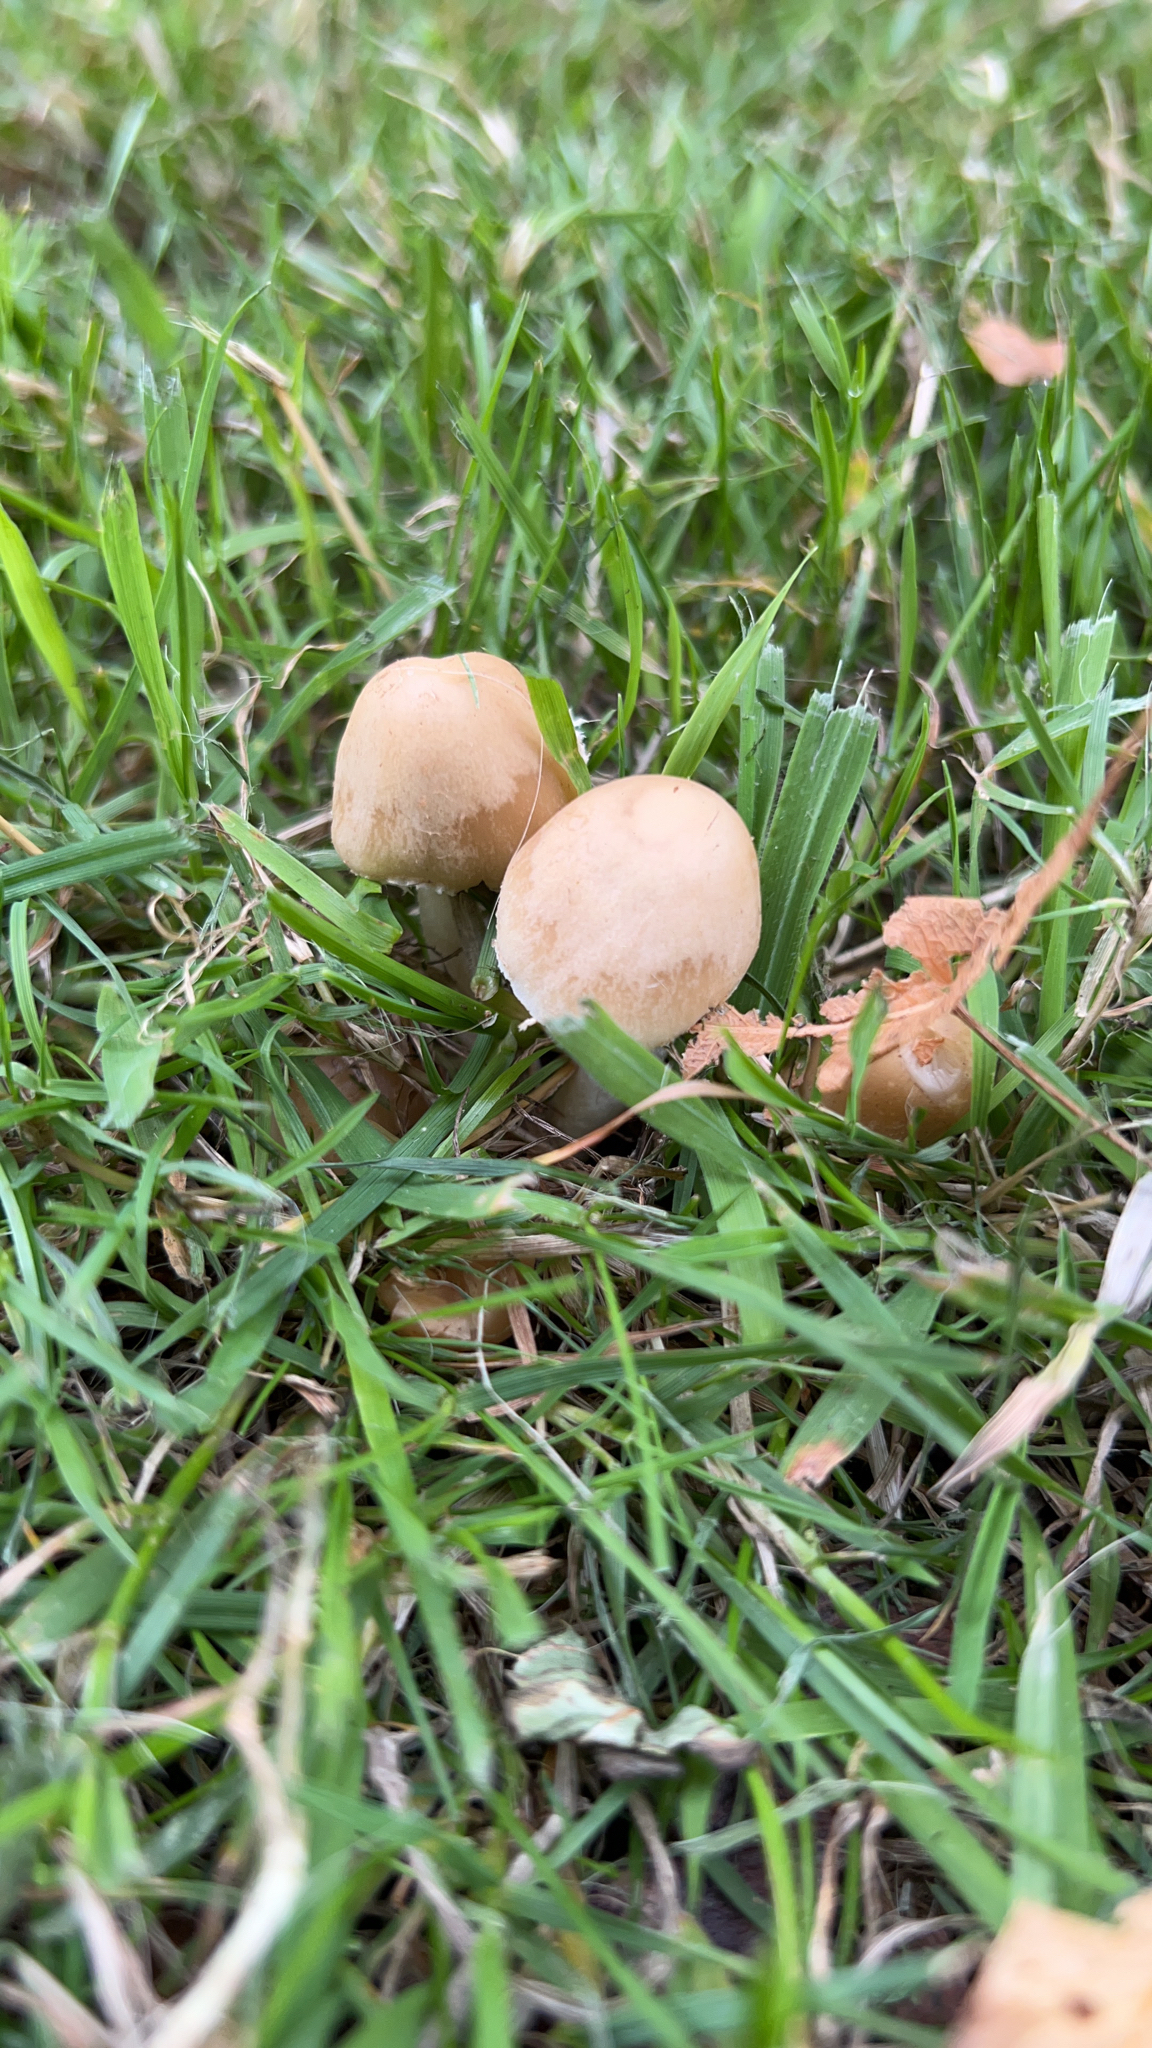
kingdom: Fungi
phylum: Basidiomycota
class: Agaricomycetes
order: Agaricales
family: Psathyrellaceae
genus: Candolleomyces
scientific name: Candolleomyces candolleanus
